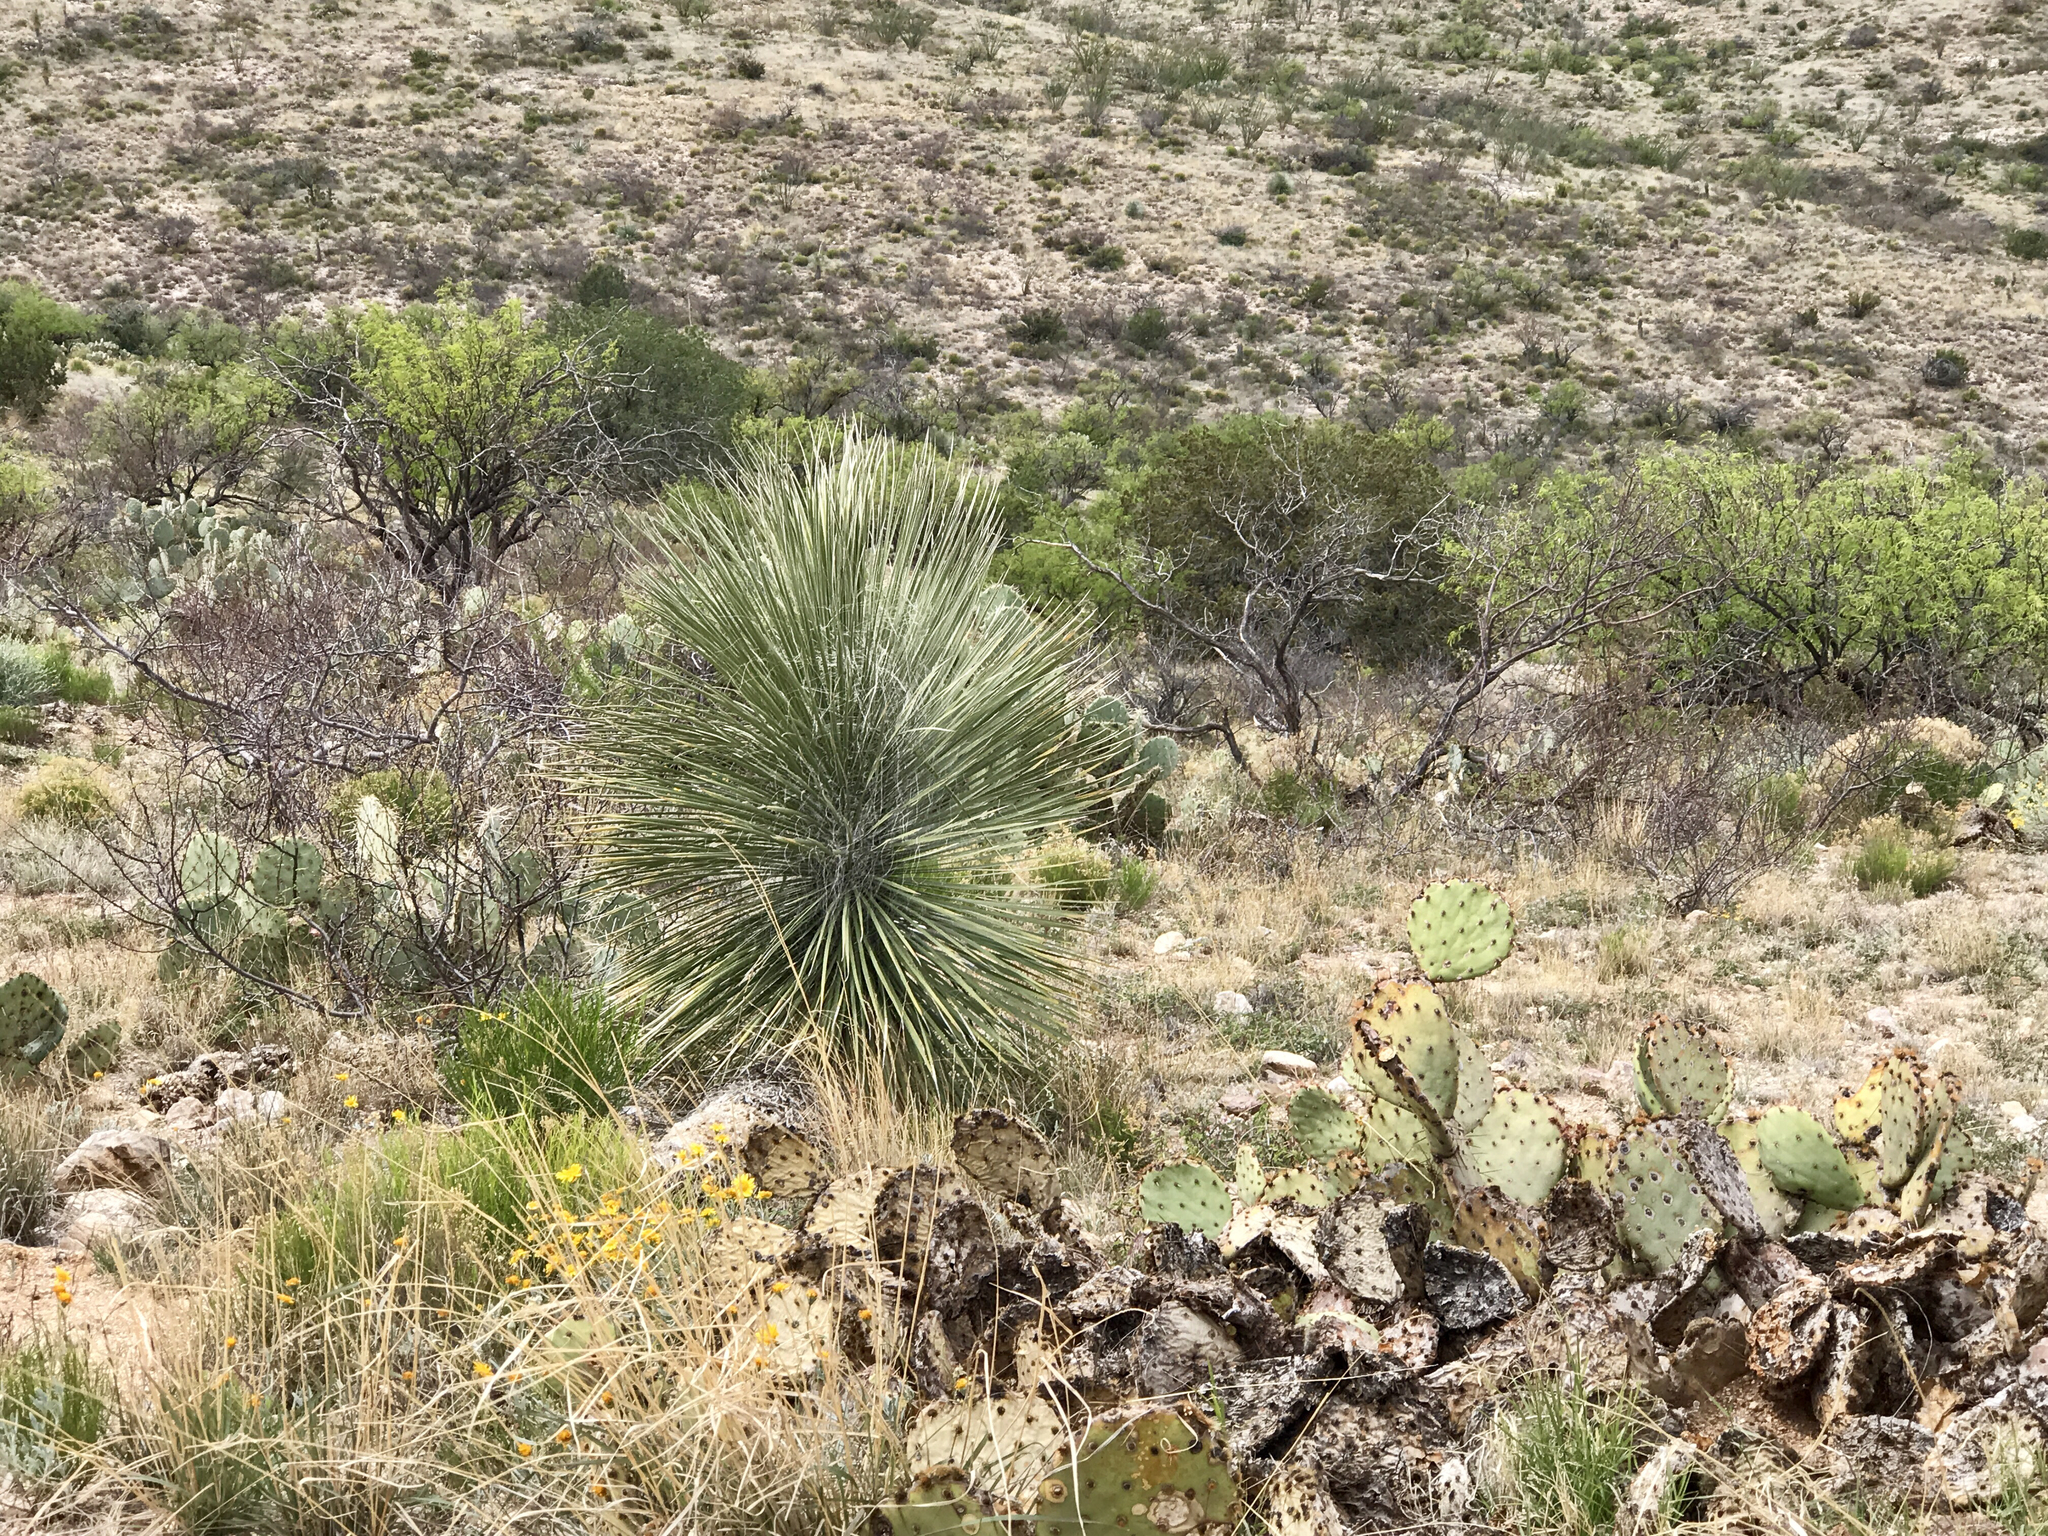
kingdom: Plantae
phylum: Tracheophyta
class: Liliopsida
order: Asparagales
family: Asparagaceae
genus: Yucca
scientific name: Yucca elata
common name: Palmella
